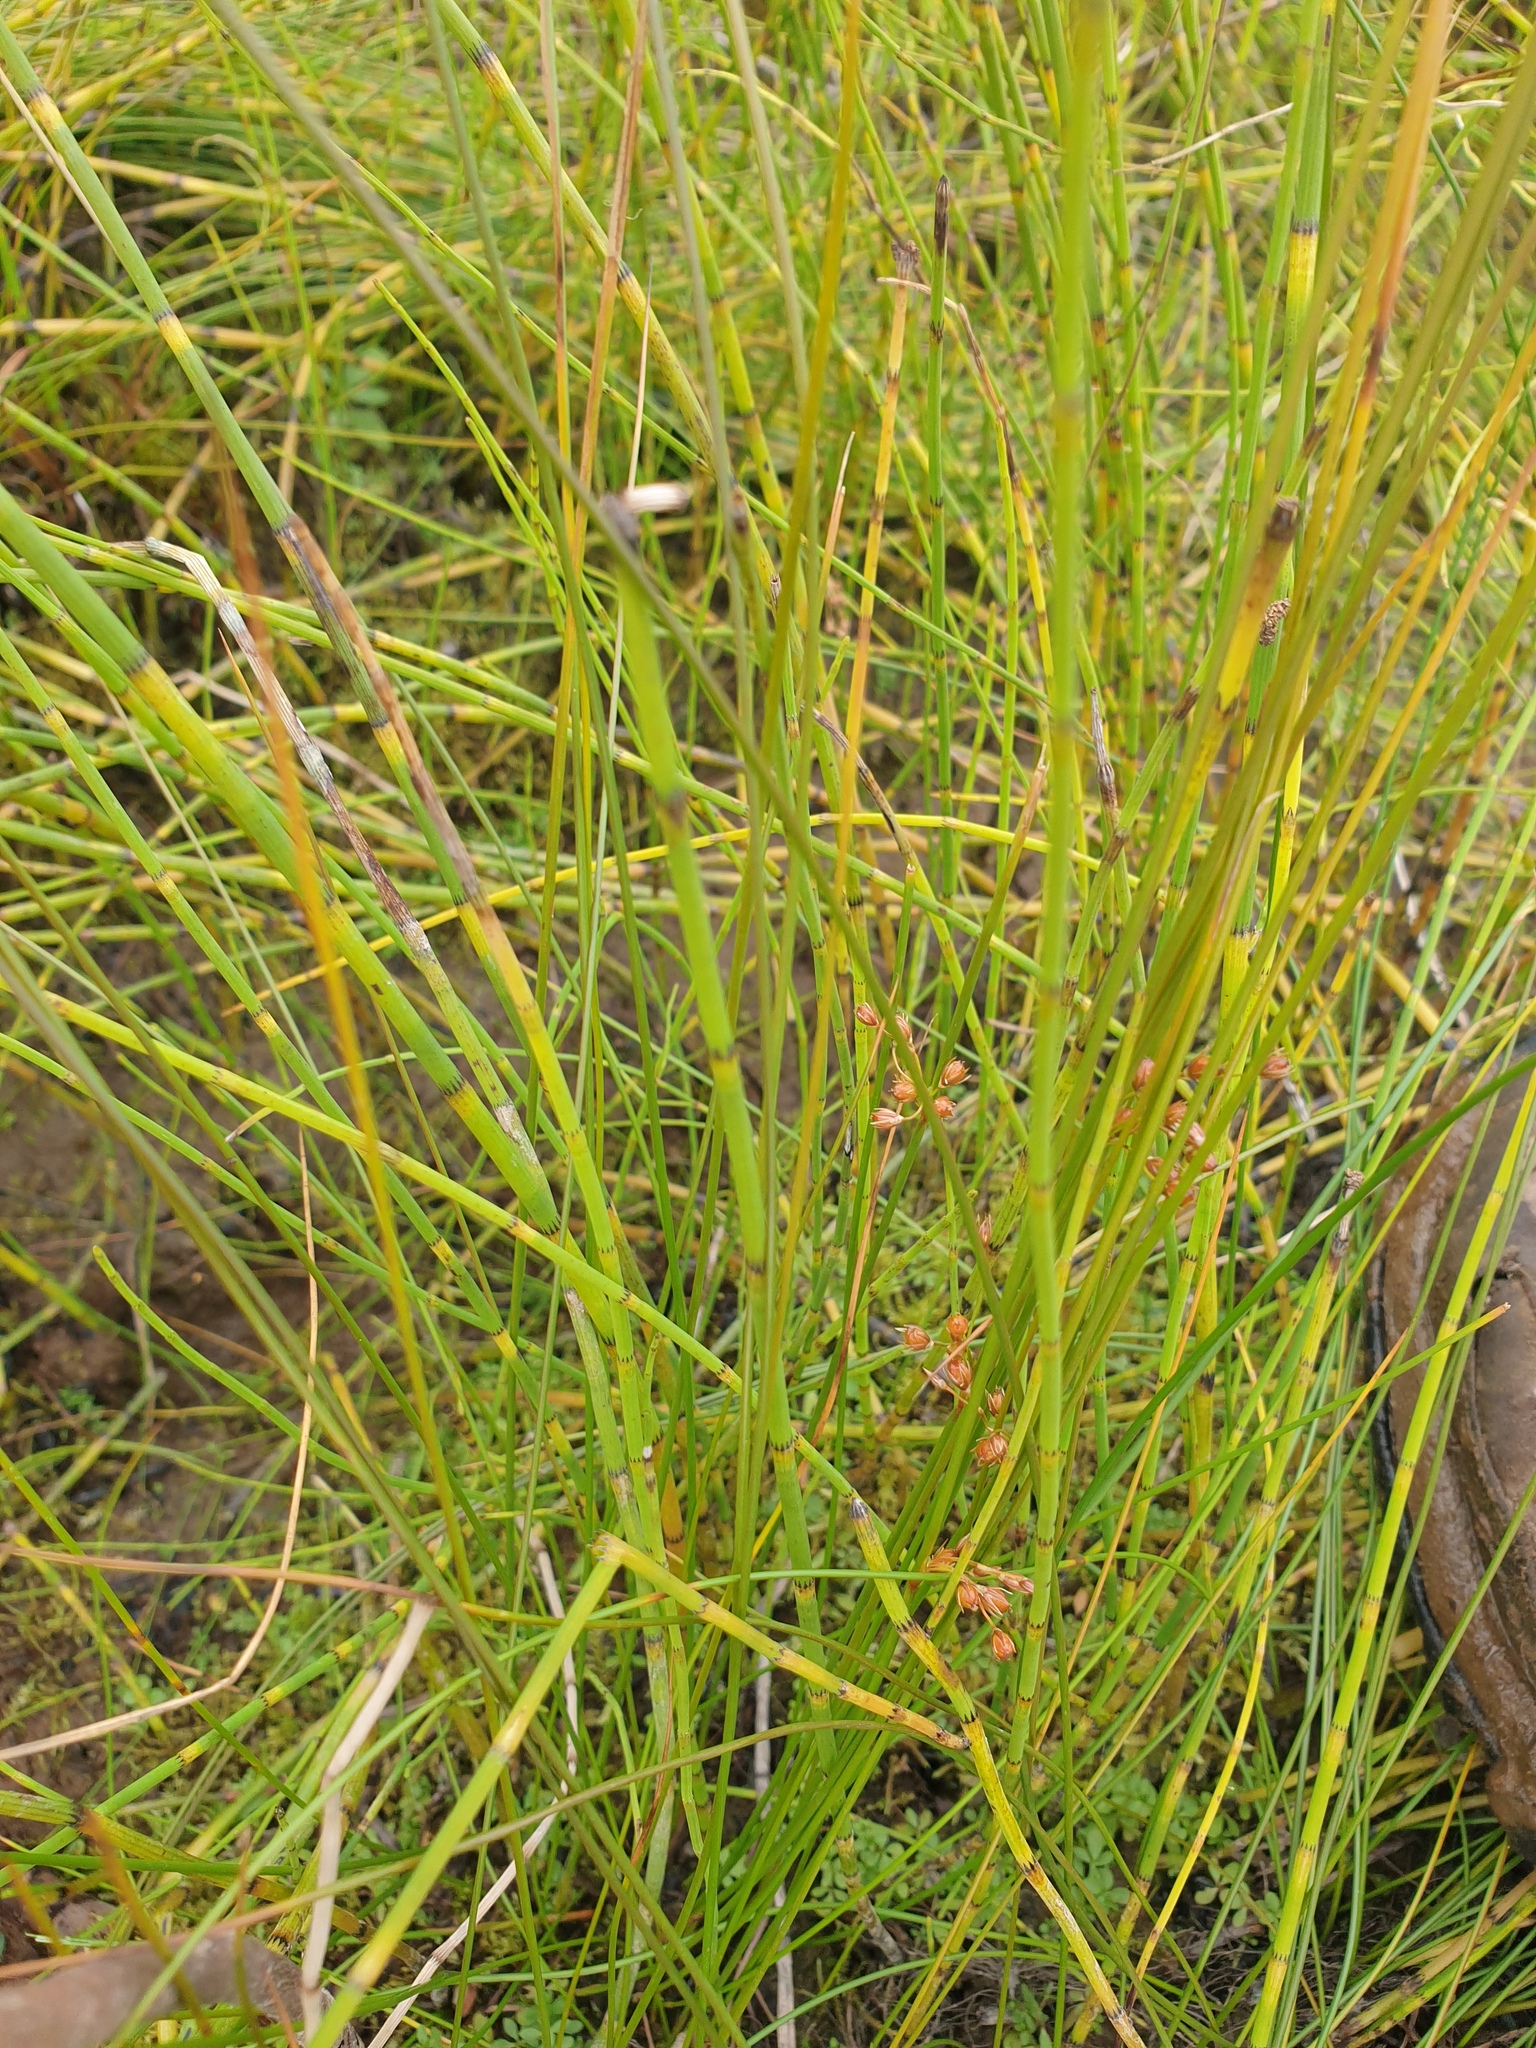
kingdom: Plantae
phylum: Tracheophyta
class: Liliopsida
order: Poales
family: Juncaceae
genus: Juncus
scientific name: Juncus filiformis
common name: Thread rush
